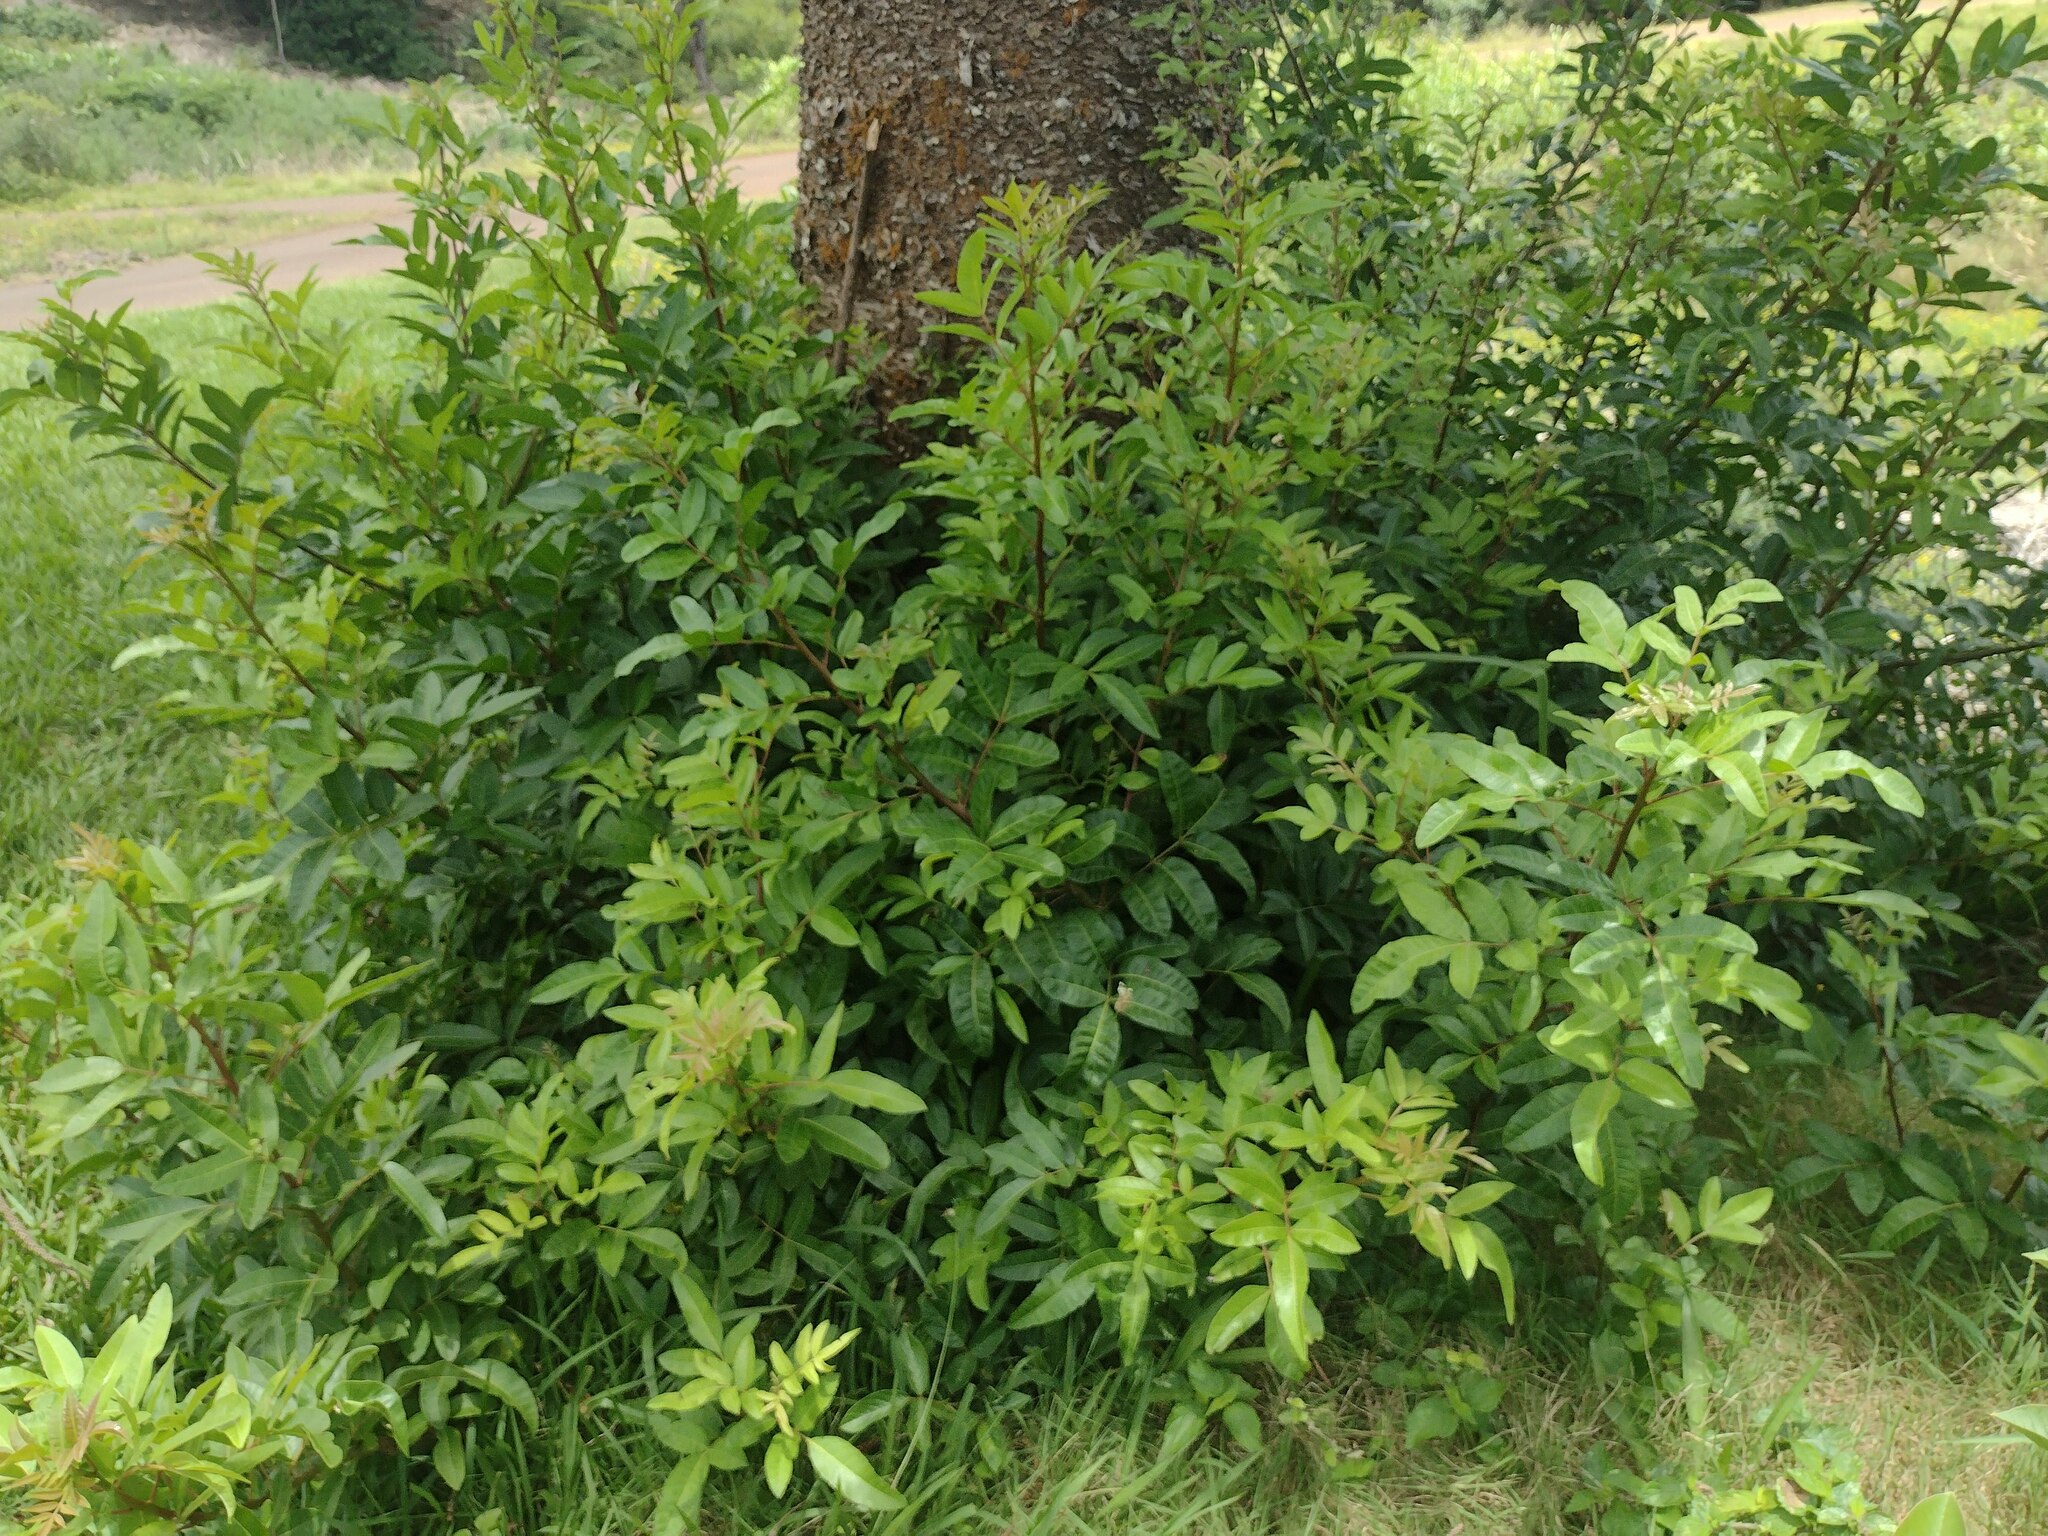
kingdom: Plantae
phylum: Tracheophyta
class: Magnoliopsida
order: Sapindales
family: Anacardiaceae
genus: Schinus
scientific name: Schinus terebinthifolia
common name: Brazilian peppertree
